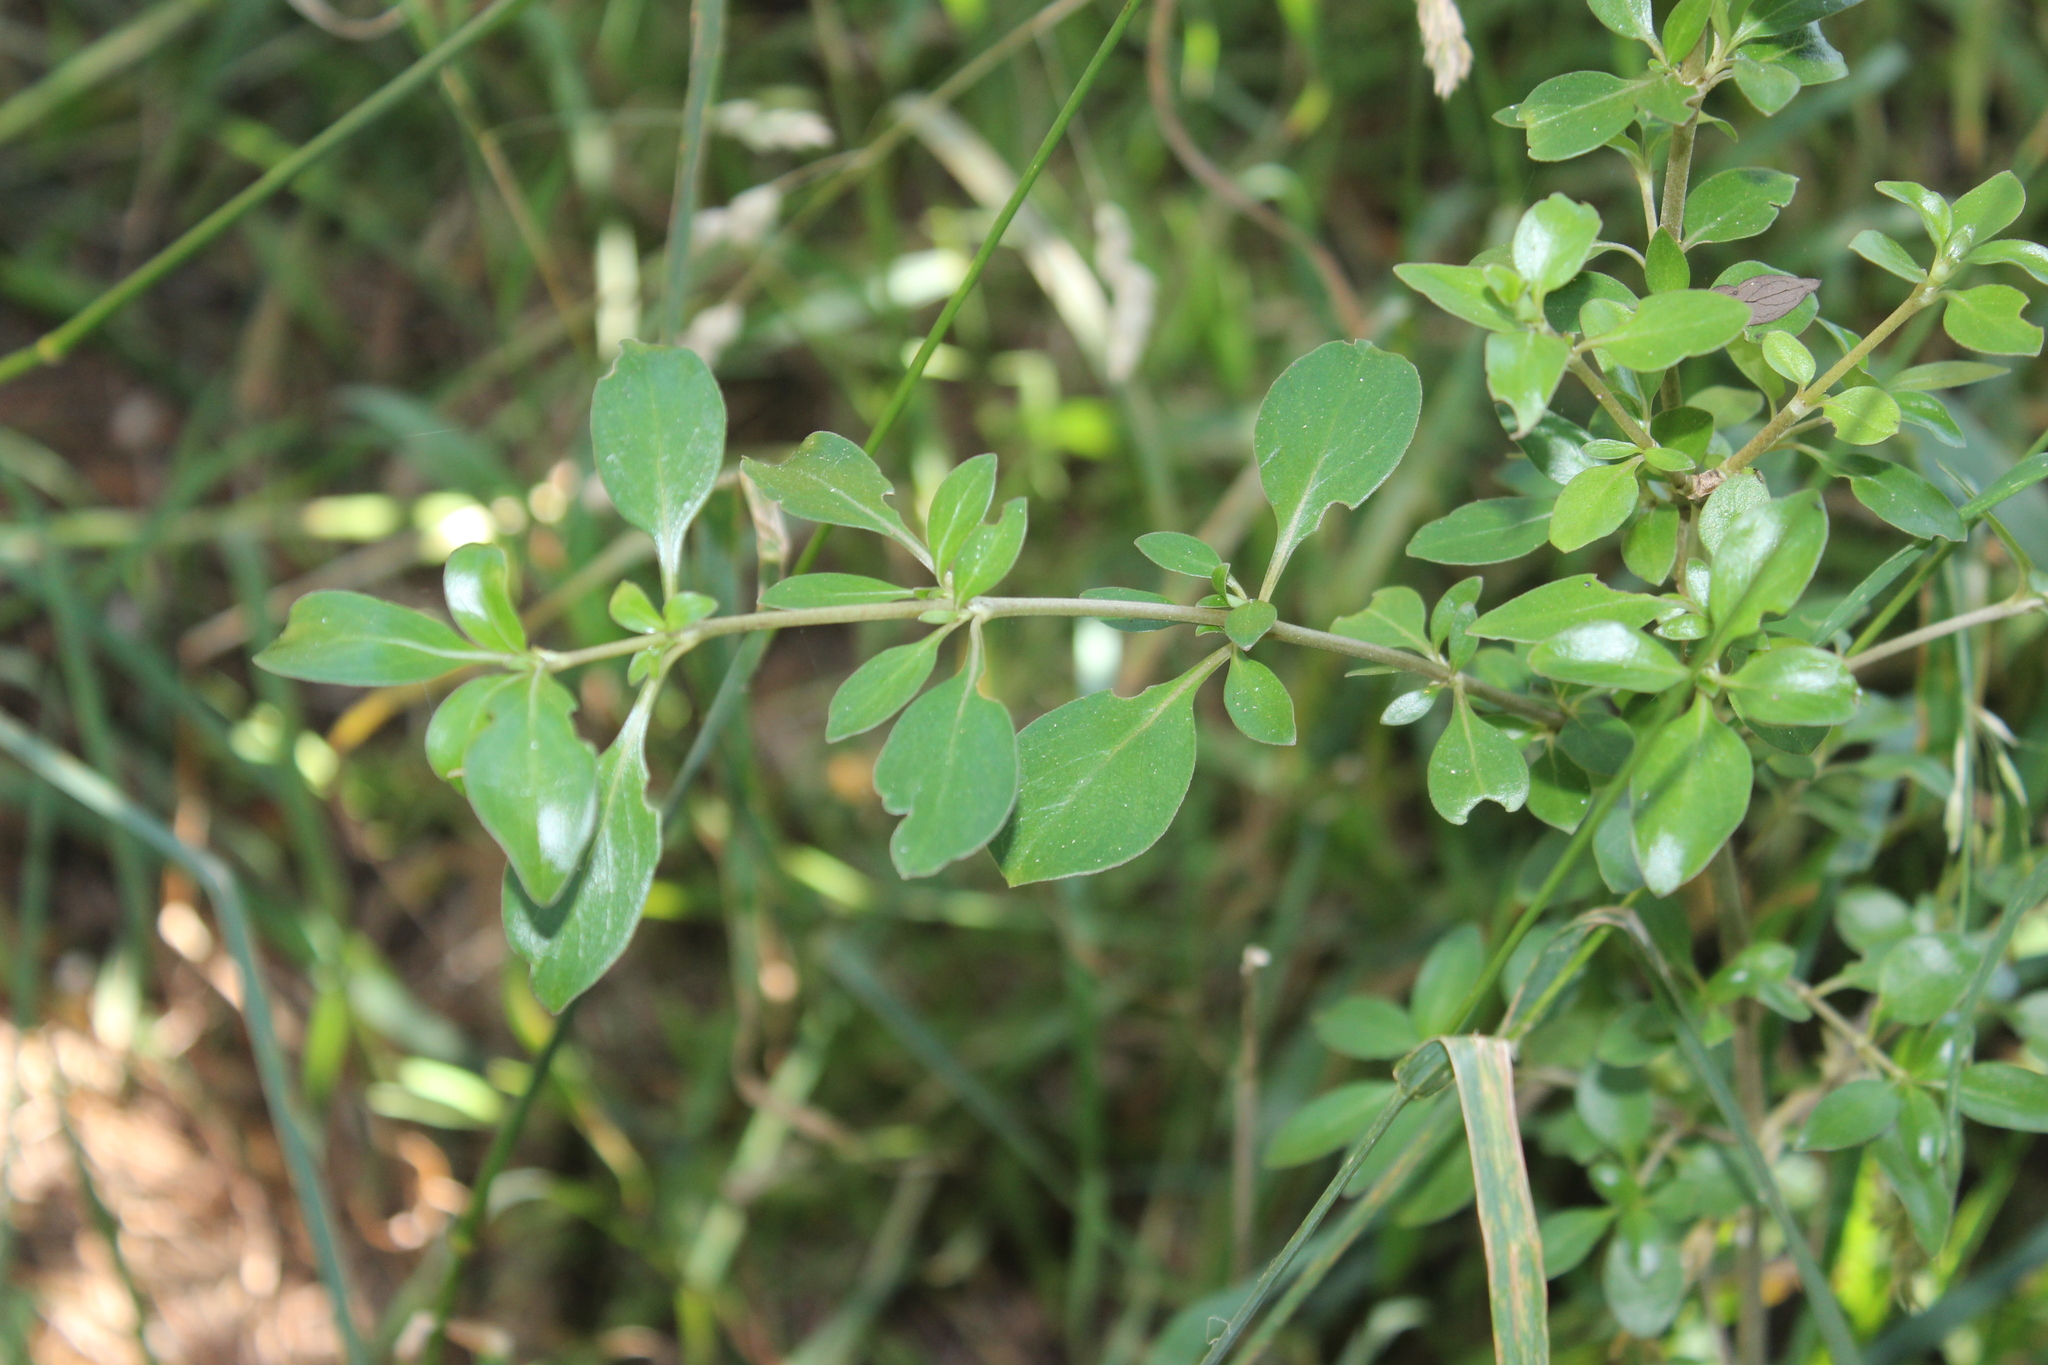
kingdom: Plantae
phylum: Tracheophyta
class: Magnoliopsida
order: Gentianales
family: Rubiaceae
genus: Coprosma
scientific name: Coprosma cunninghamii
